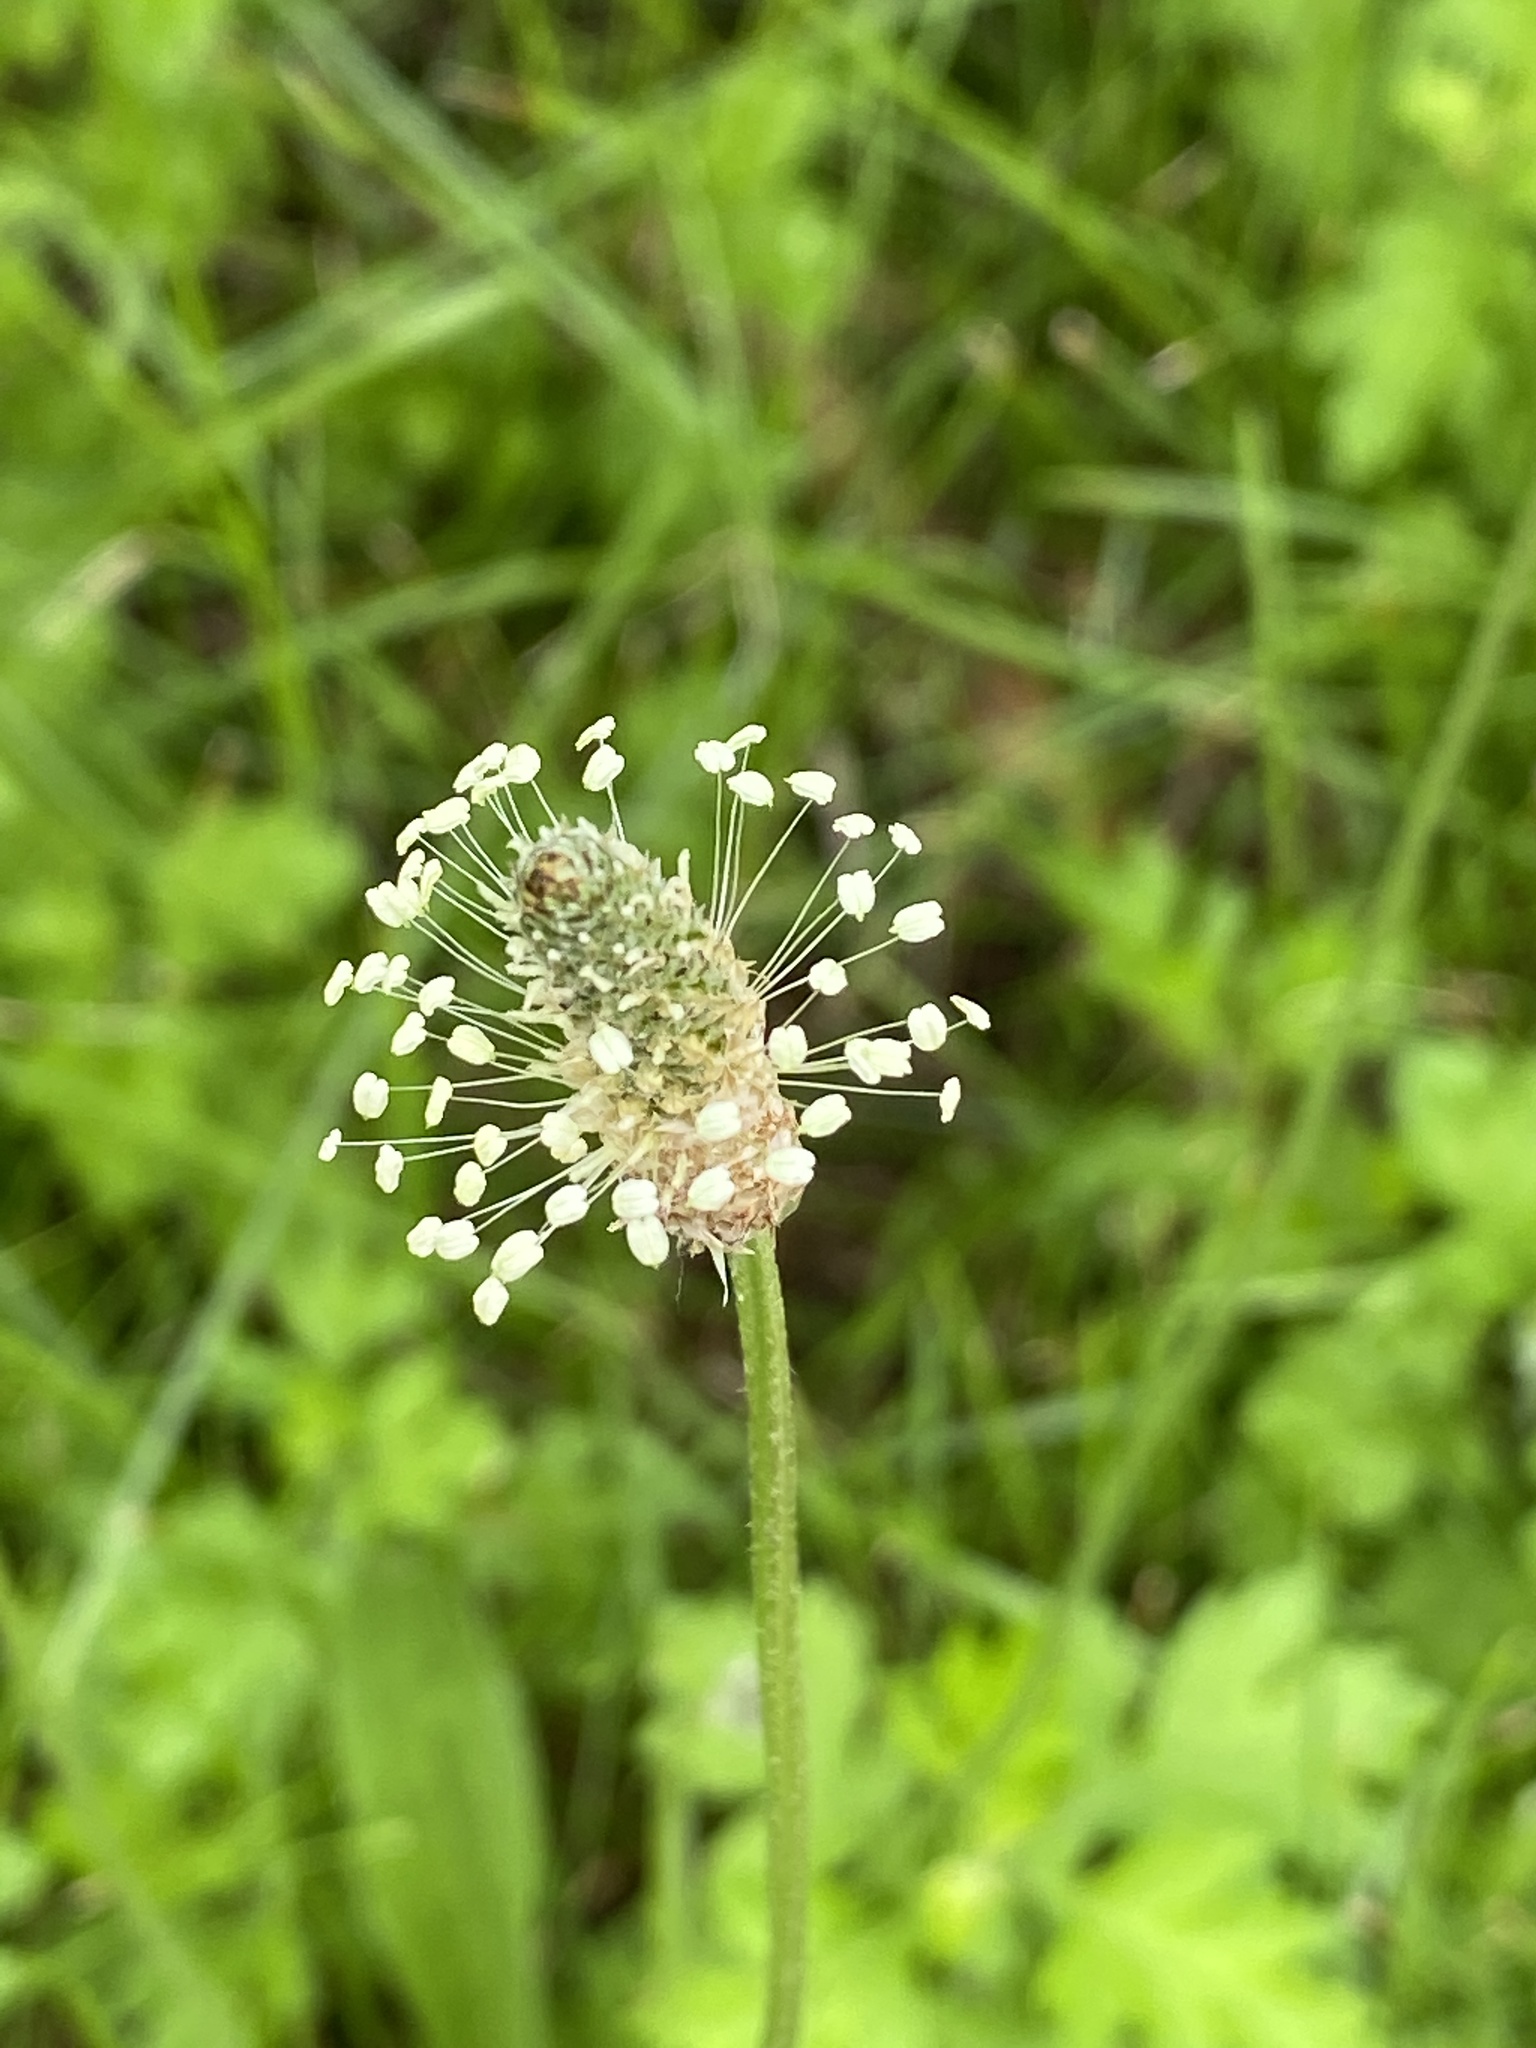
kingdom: Plantae
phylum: Tracheophyta
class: Magnoliopsida
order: Lamiales
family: Plantaginaceae
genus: Plantago
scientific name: Plantago lanceolata
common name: Ribwort plantain
